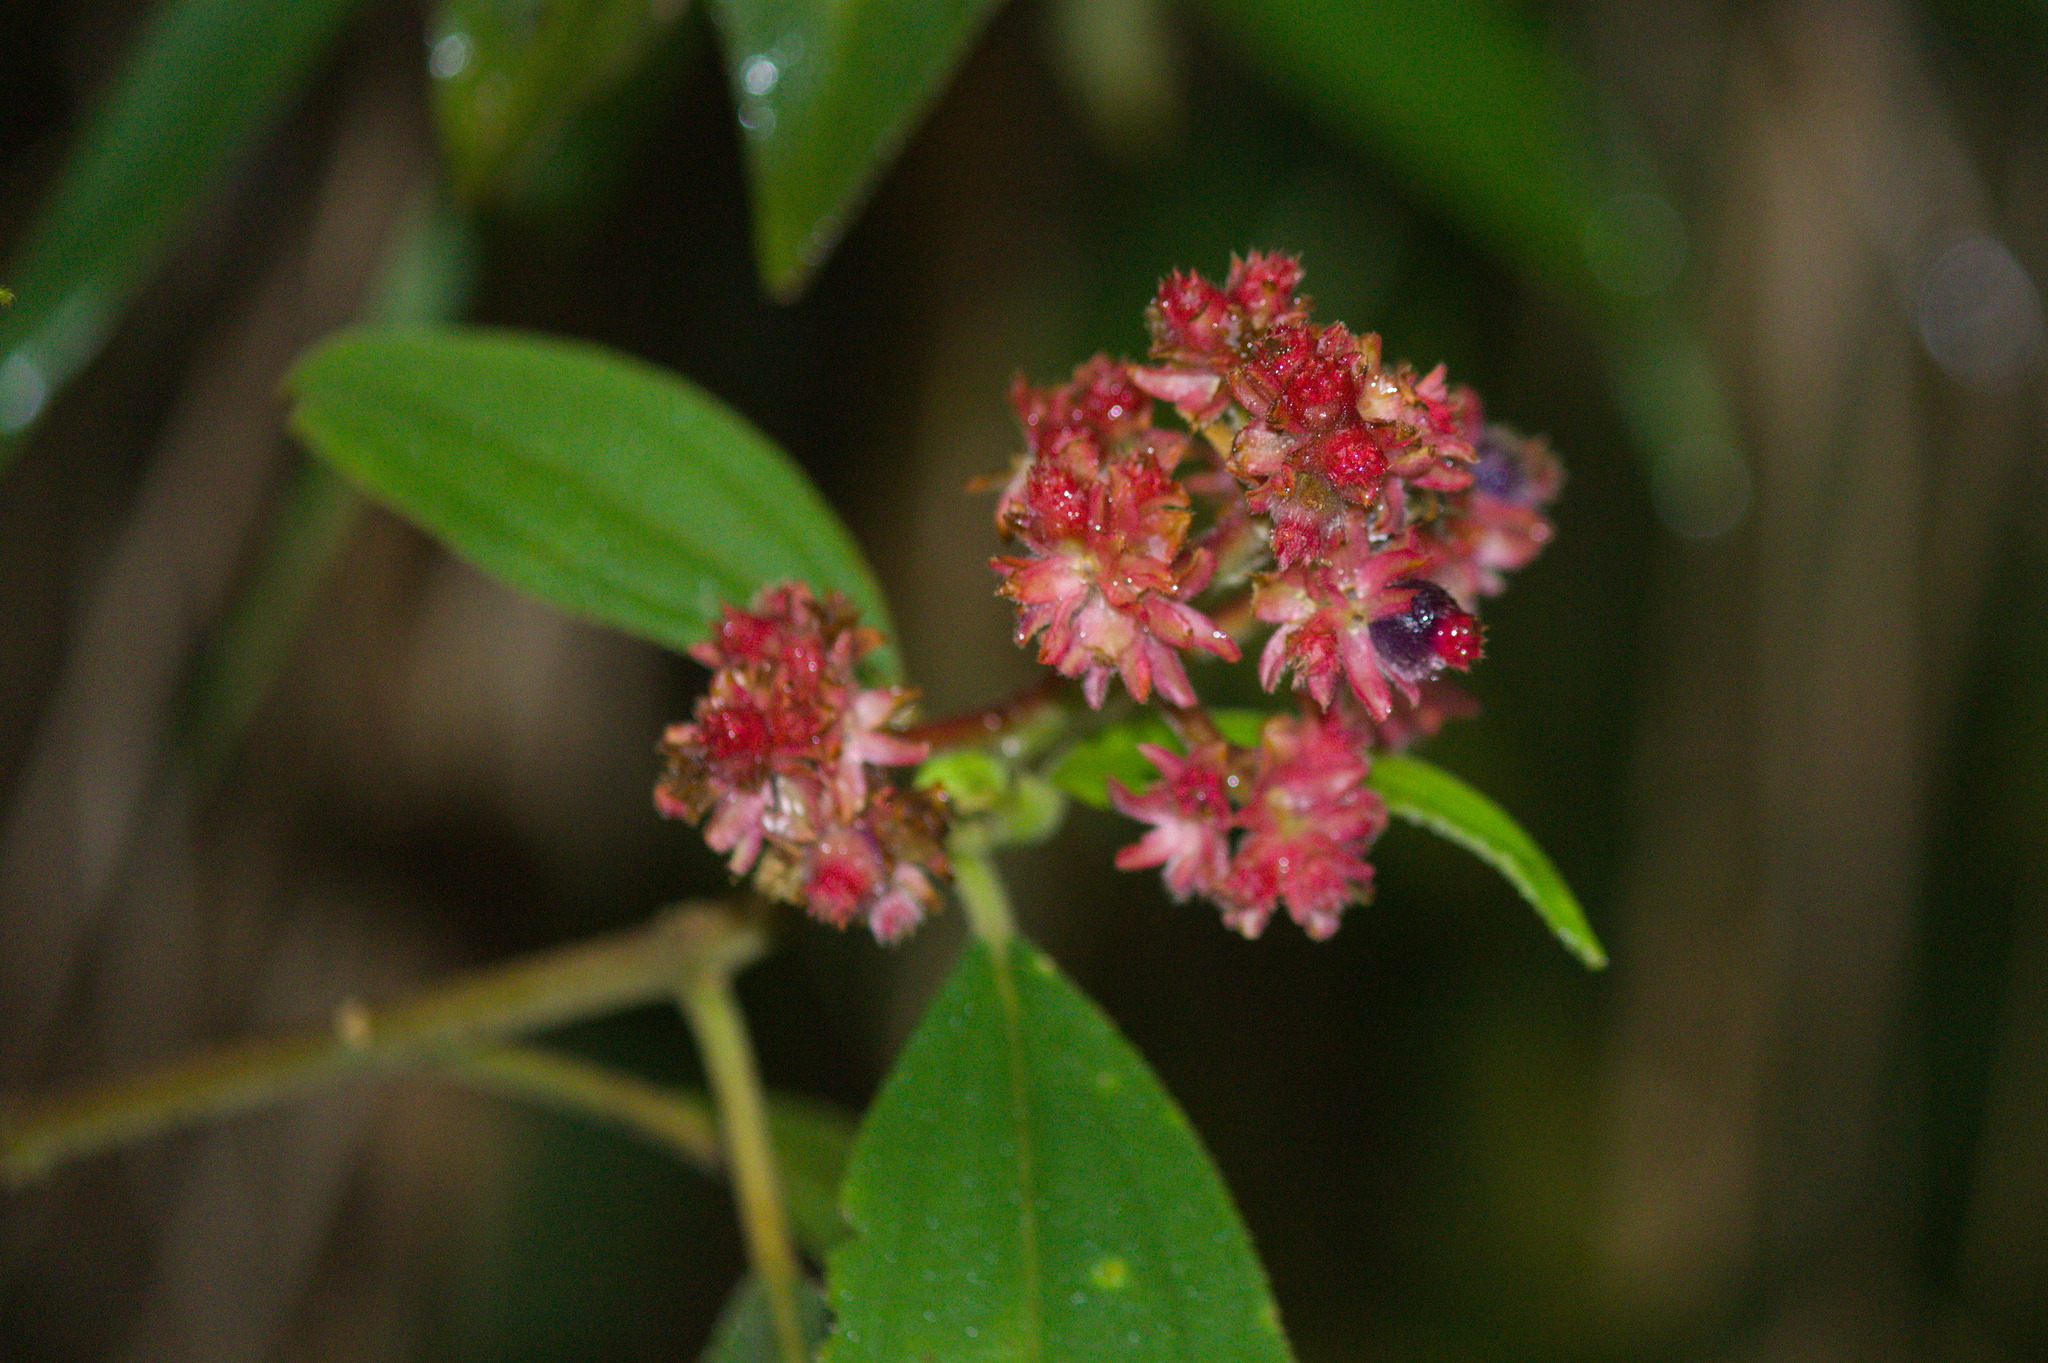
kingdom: Plantae
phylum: Tracheophyta
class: Magnoliopsida
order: Myrtales
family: Melastomataceae
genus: Miconia
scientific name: Miconia melastomoides
